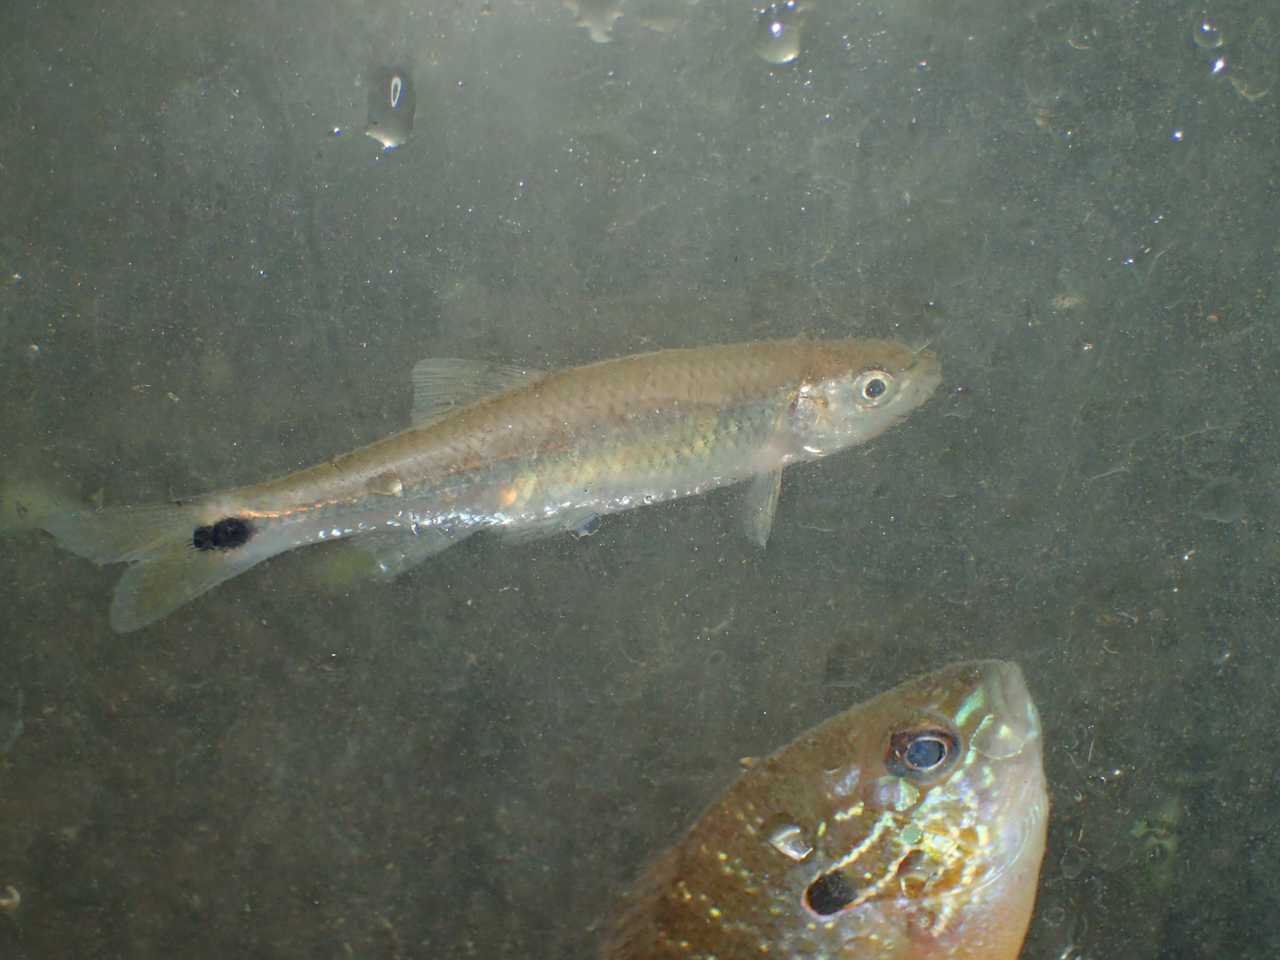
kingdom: Animalia
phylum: Chordata
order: Cypriniformes
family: Cyprinidae
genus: Cyprinella
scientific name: Cyprinella stigmatura
